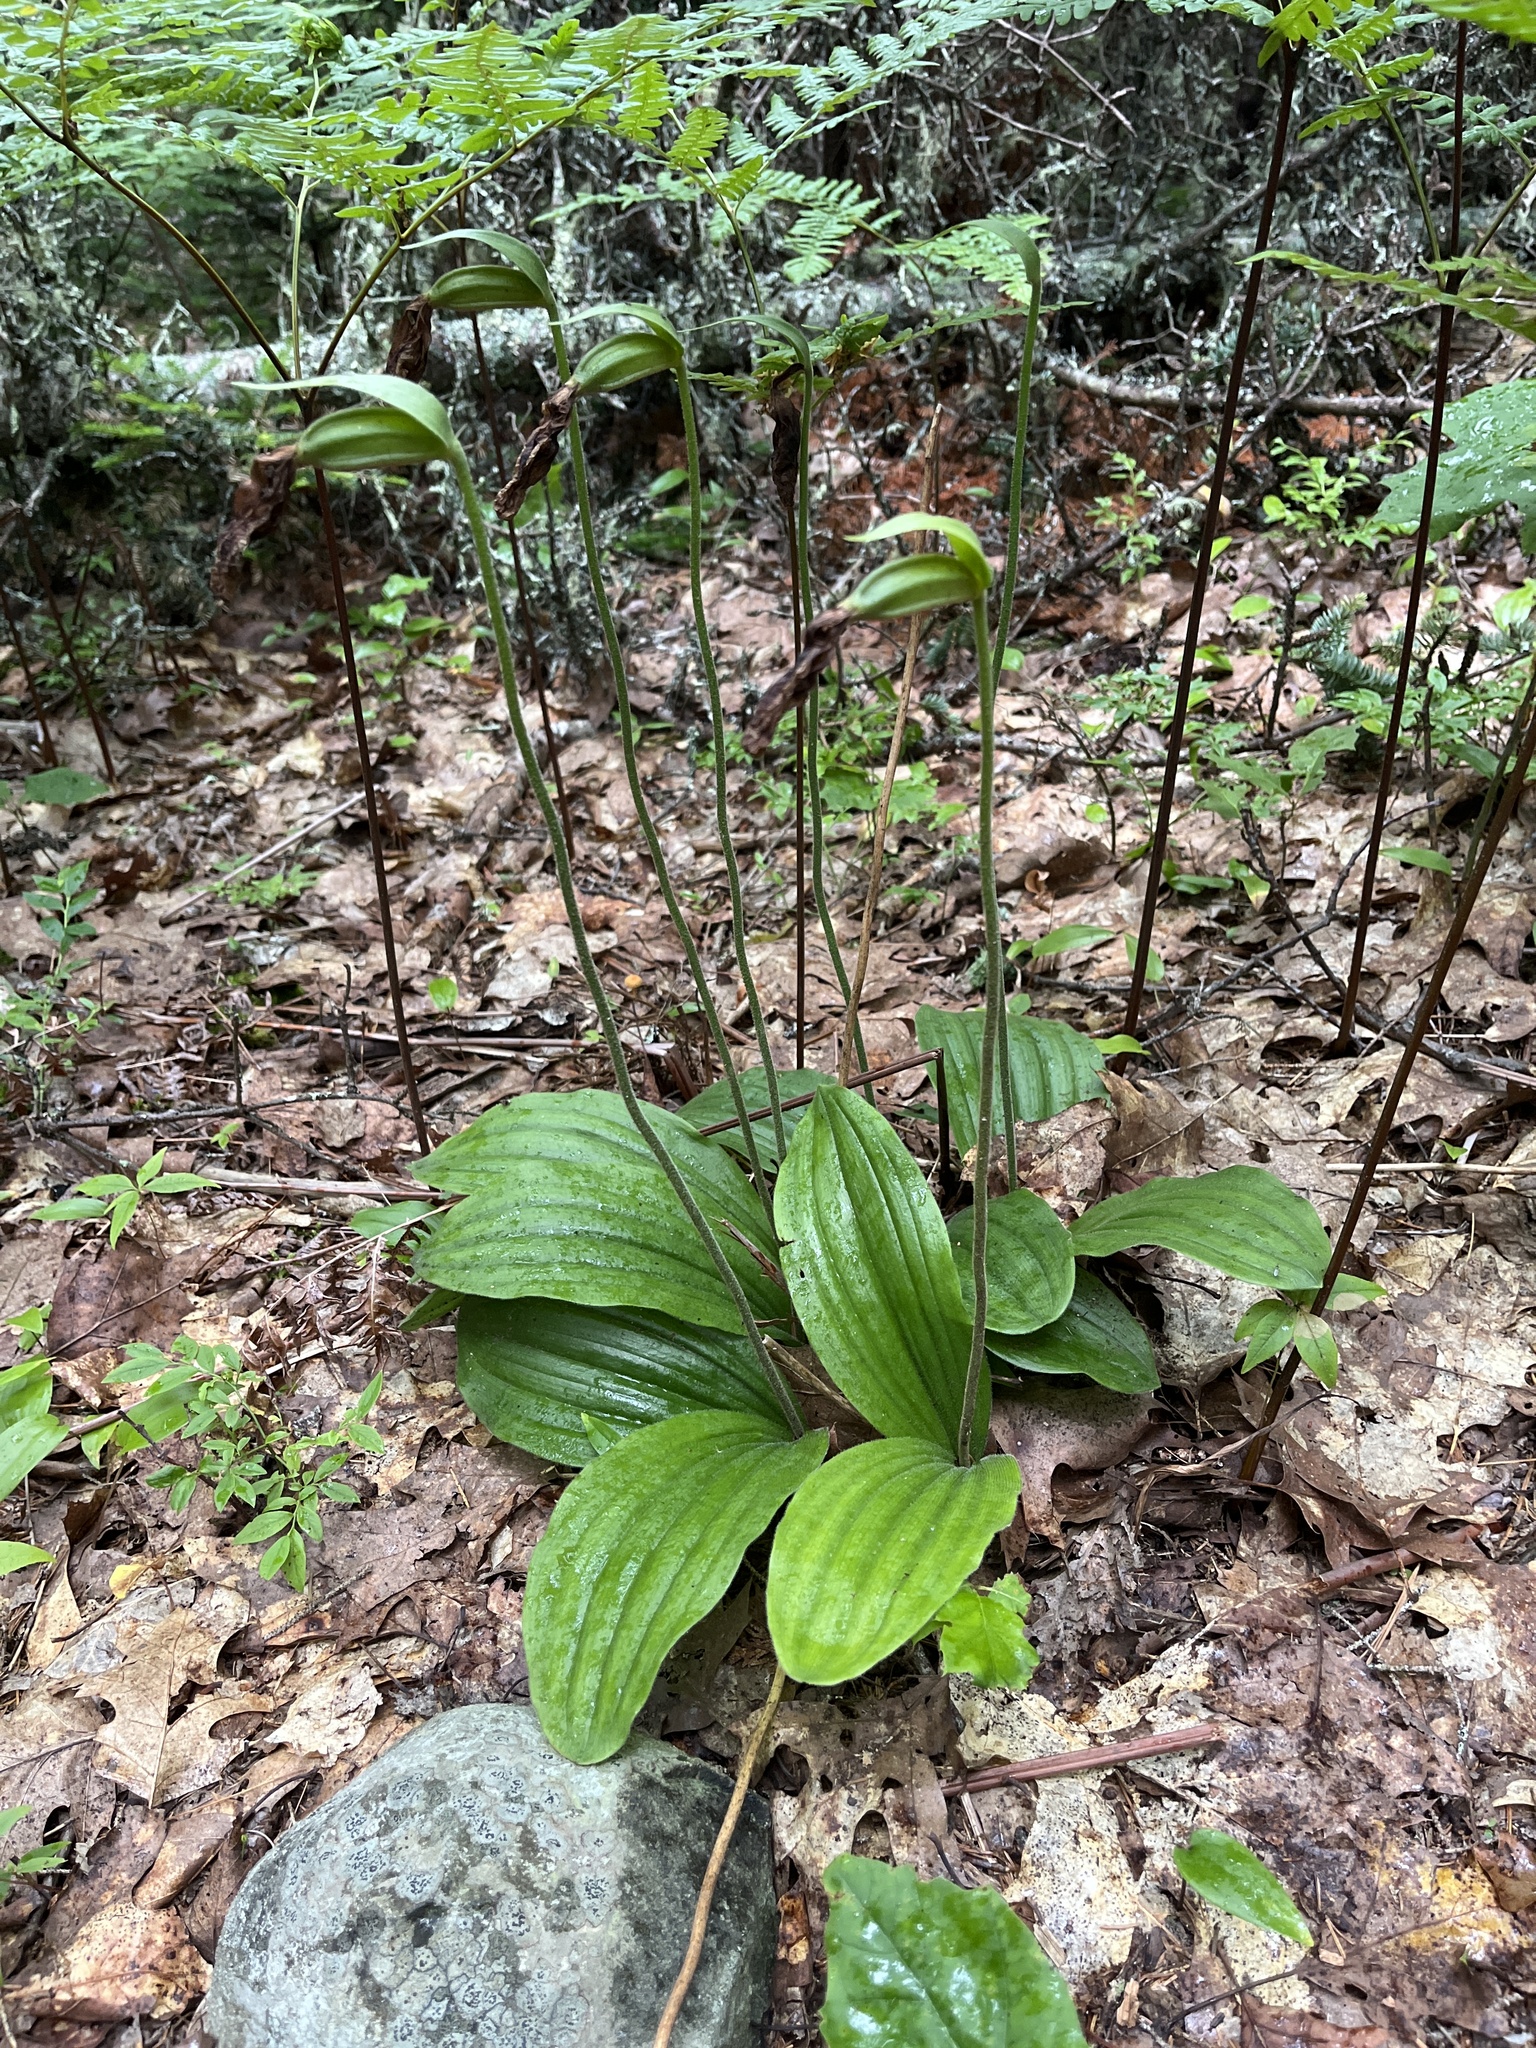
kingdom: Plantae
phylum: Tracheophyta
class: Liliopsida
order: Asparagales
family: Orchidaceae
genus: Cypripedium
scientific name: Cypripedium acaule
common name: Pink lady's-slipper
